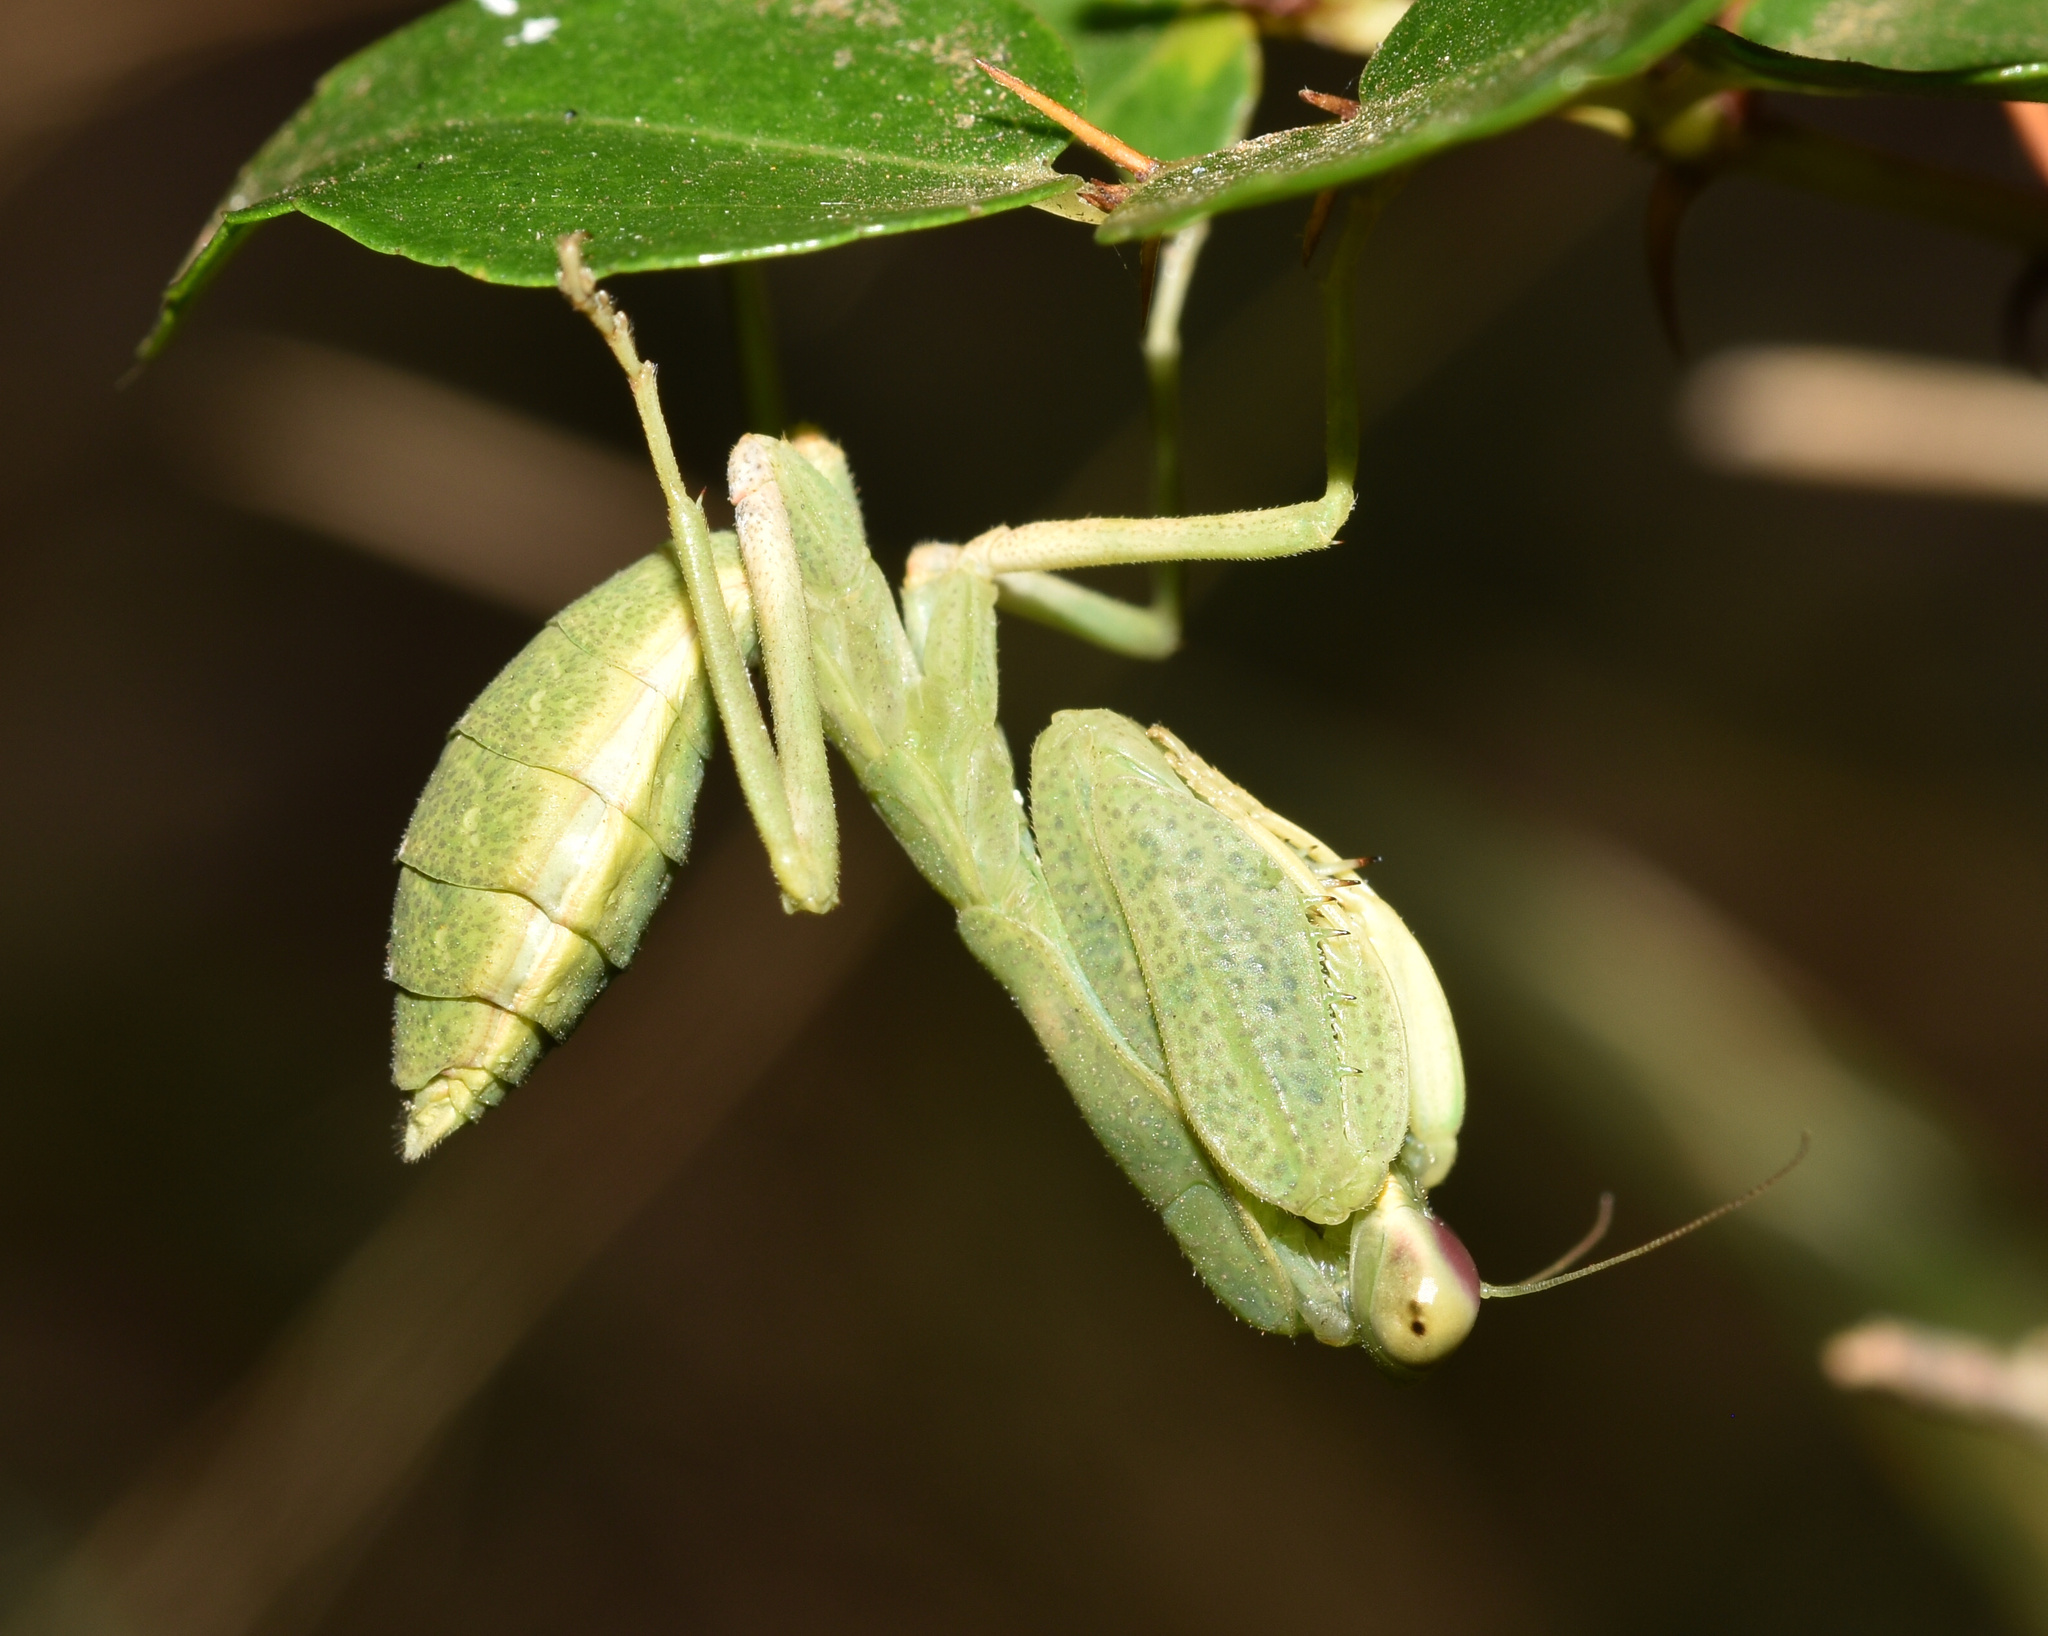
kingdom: Animalia
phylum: Arthropoda
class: Insecta
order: Mantodea
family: Miomantidae
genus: Cilnia
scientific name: Cilnia humeralis
